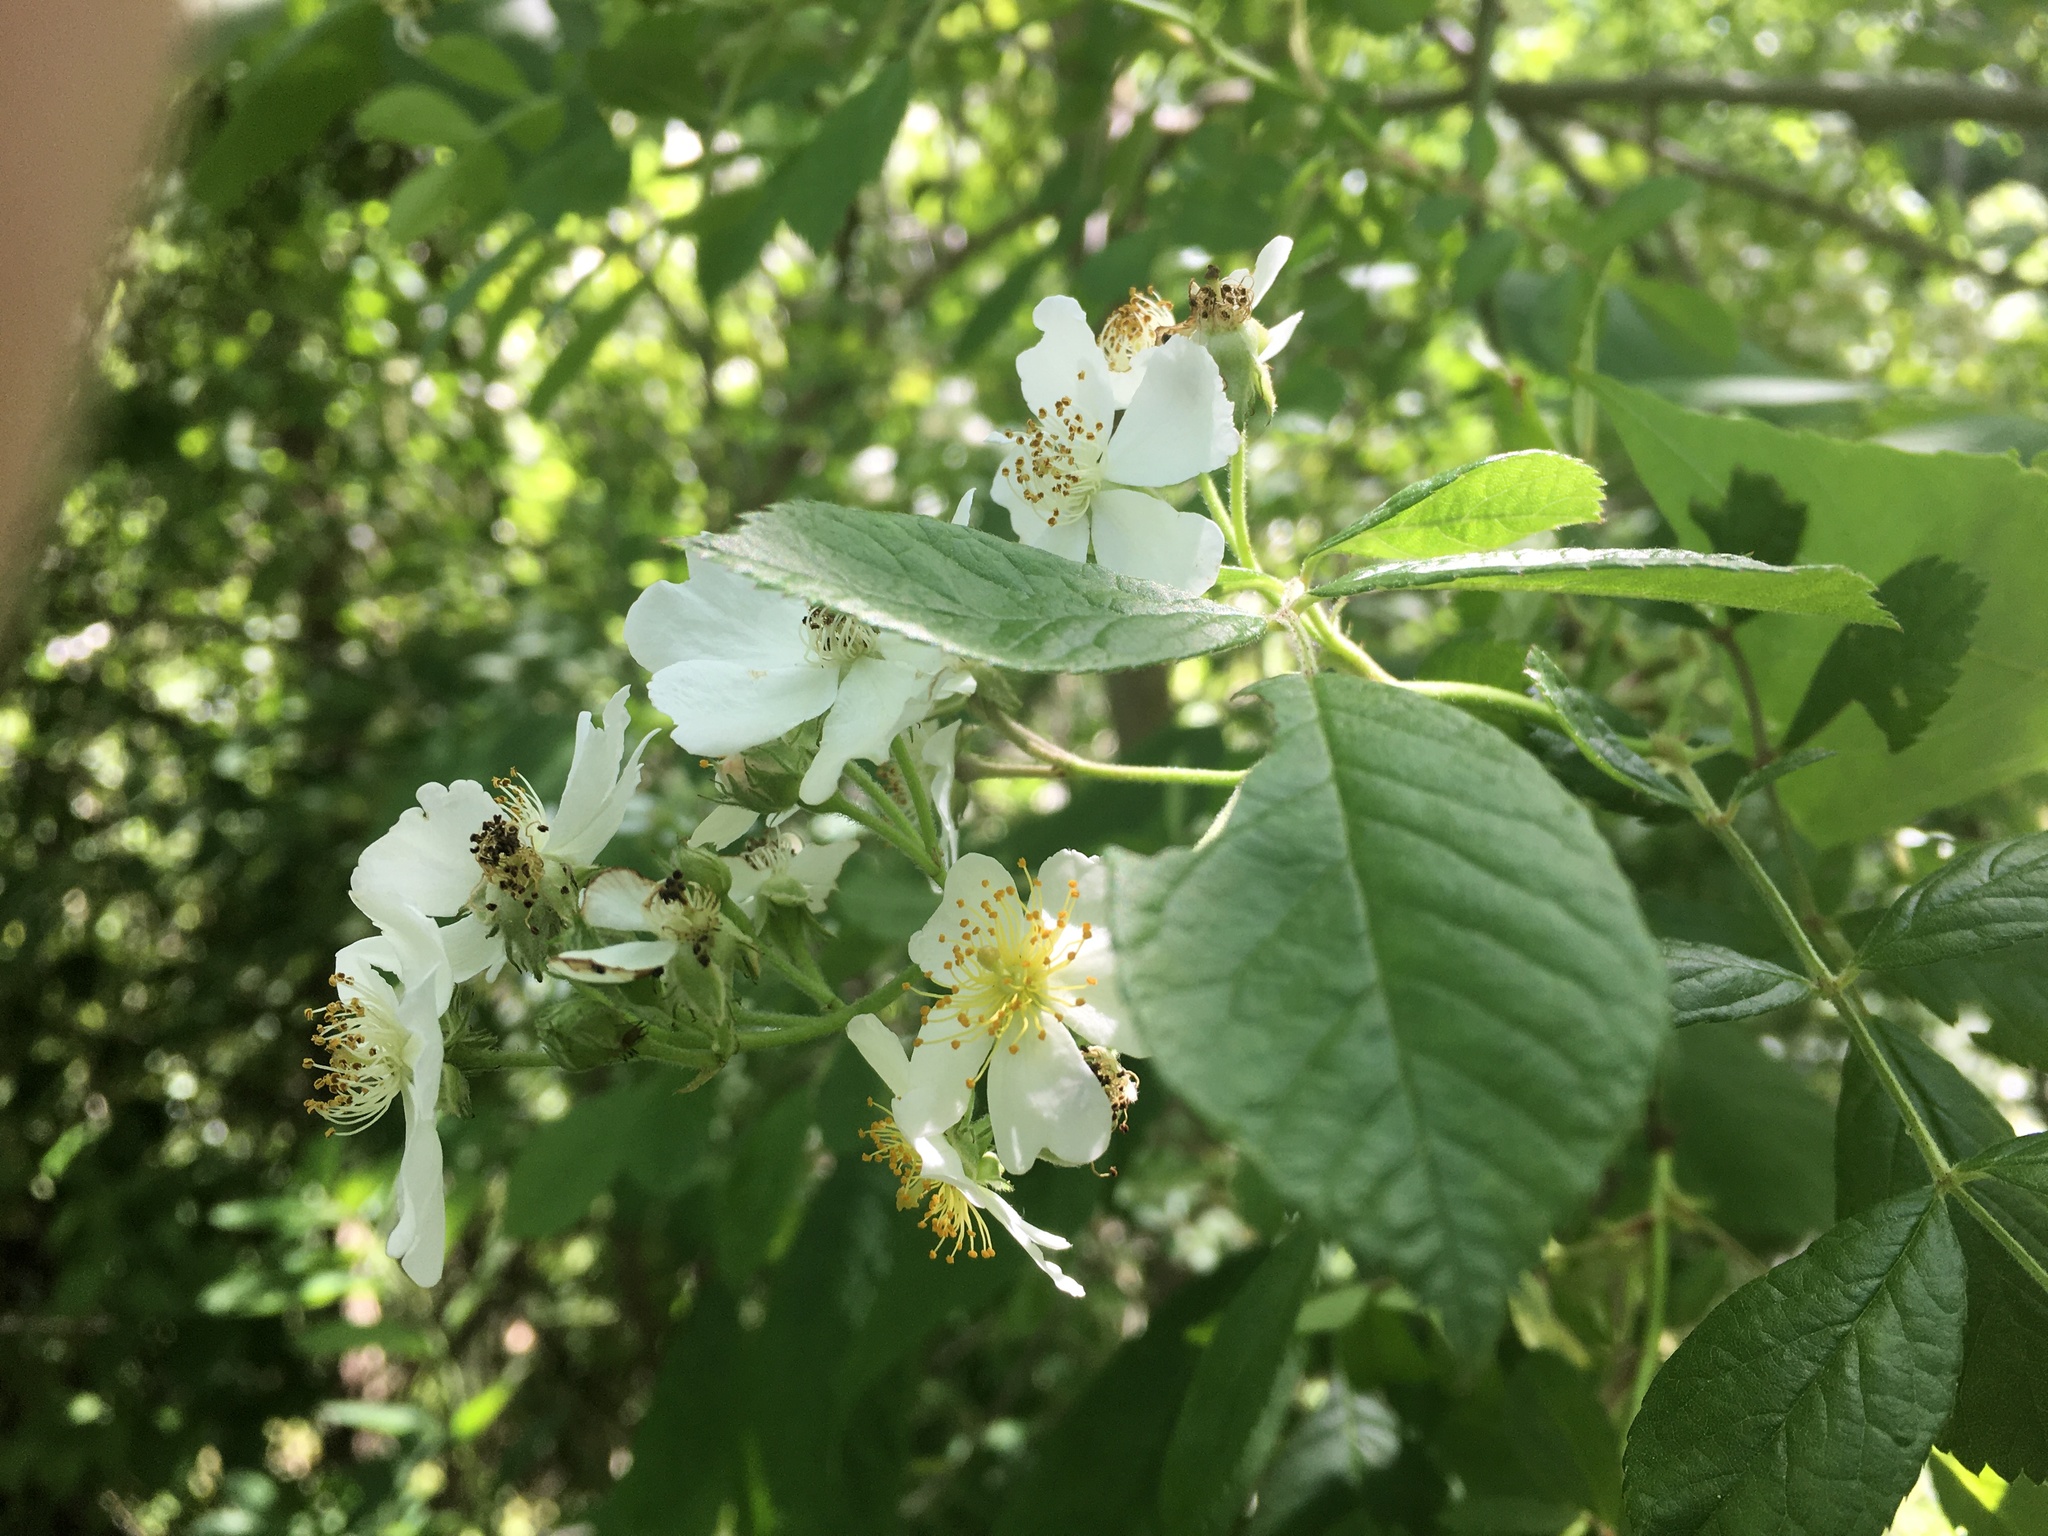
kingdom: Plantae
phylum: Tracheophyta
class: Magnoliopsida
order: Rosales
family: Rosaceae
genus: Rosa
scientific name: Rosa multiflora
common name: Multiflora rose
